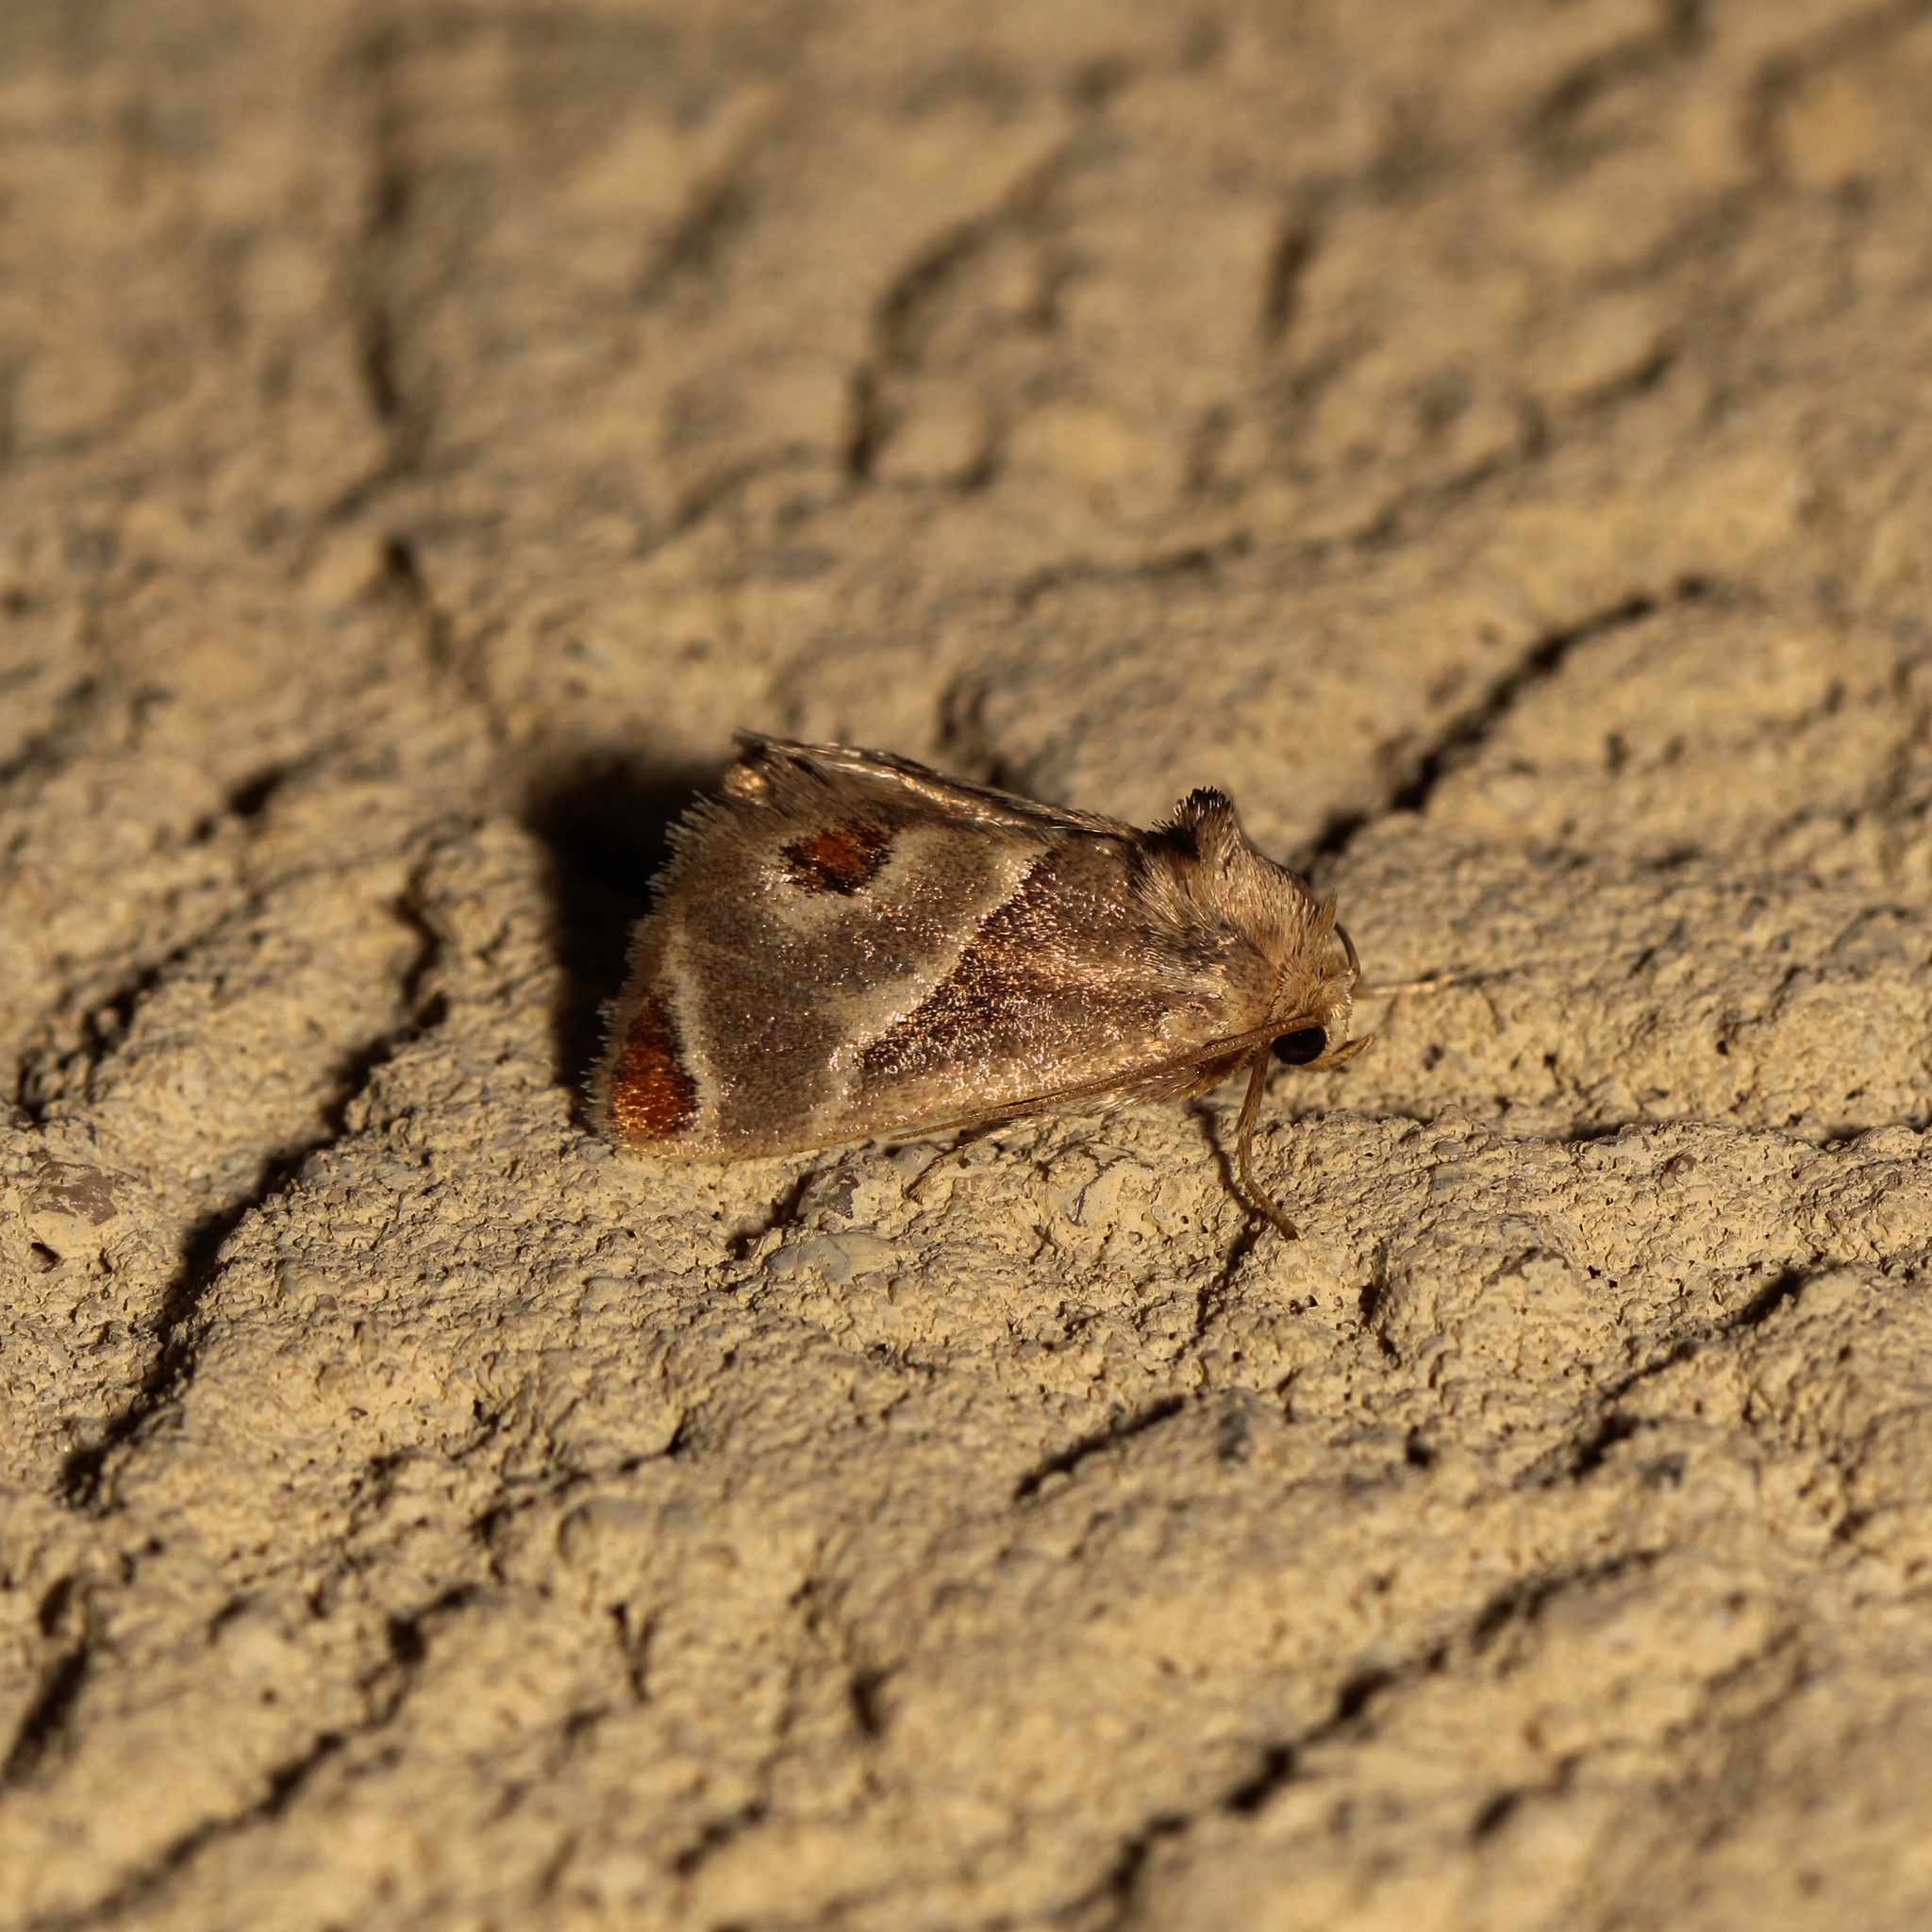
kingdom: Animalia
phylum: Arthropoda
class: Insecta
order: Lepidoptera
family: Limacodidae
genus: Apoda
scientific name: Apoda biguttata
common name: Shagreened slug moth
